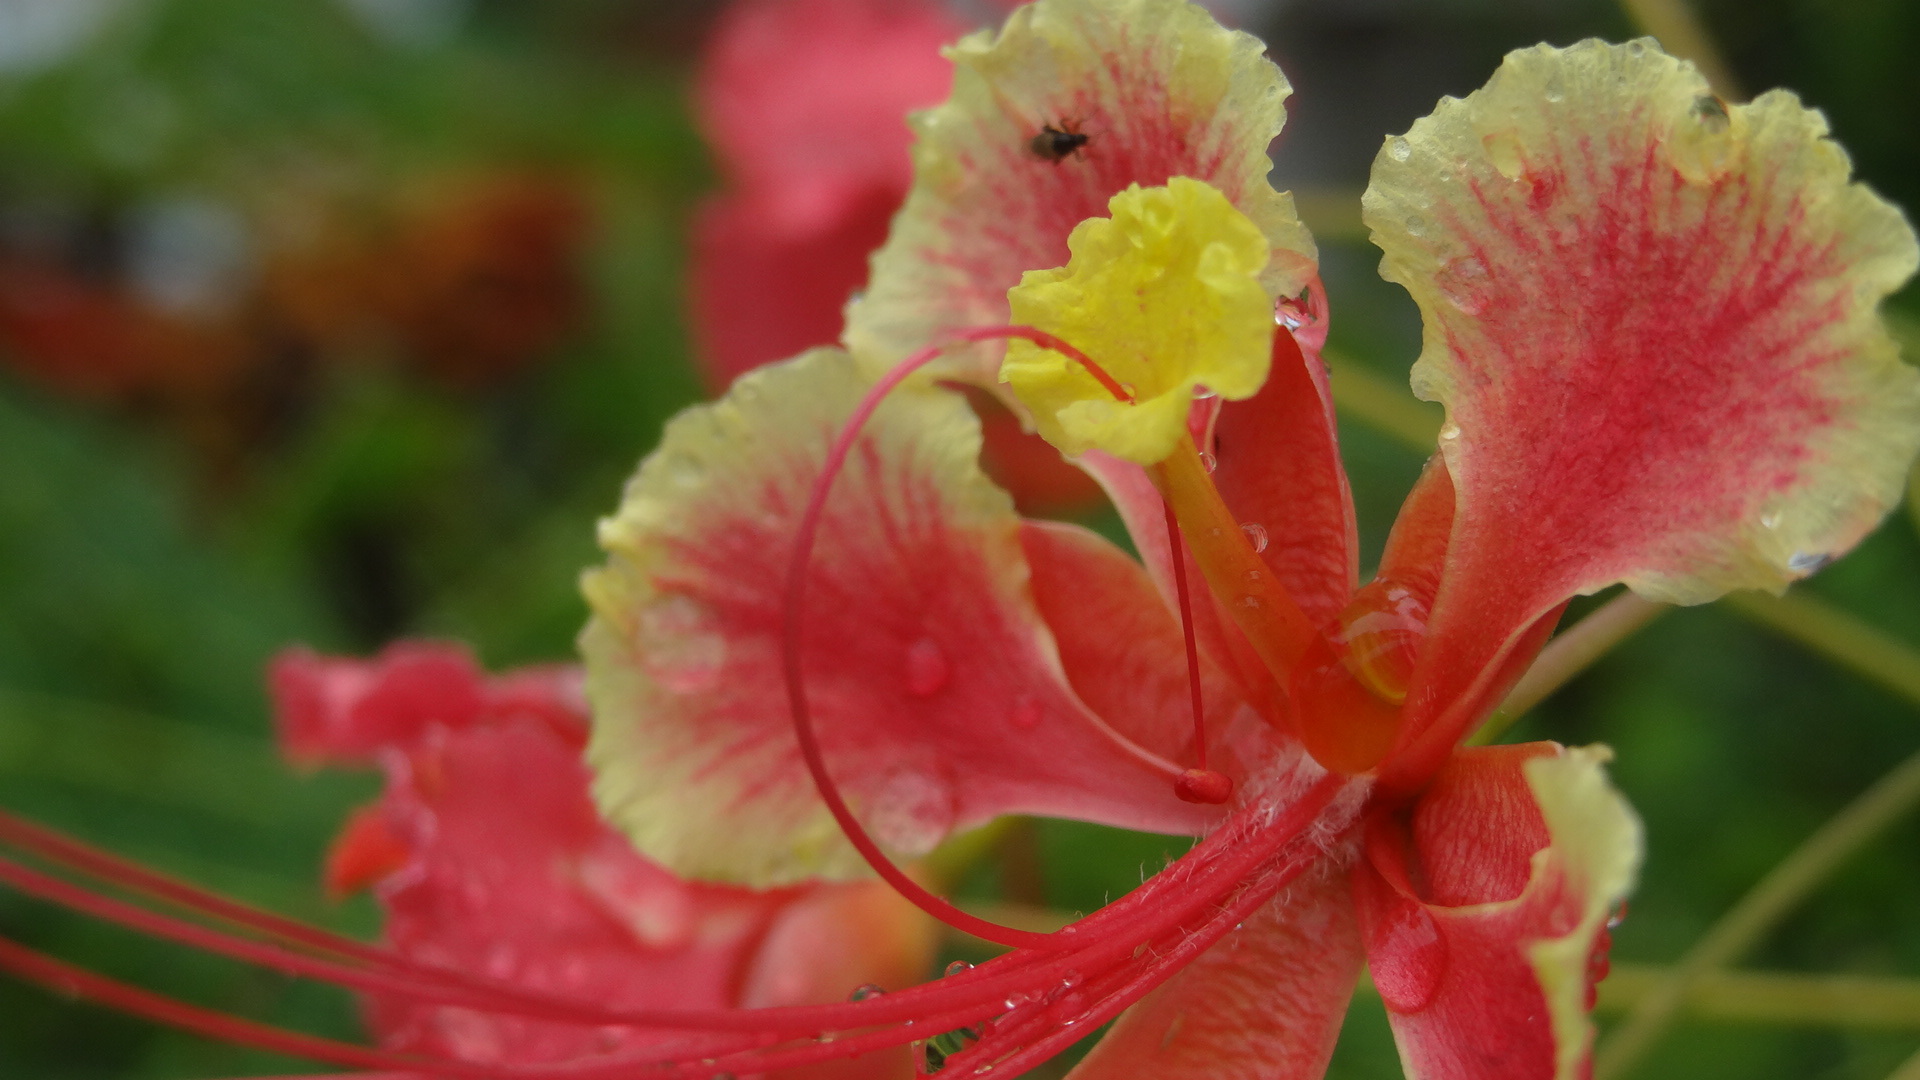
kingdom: Plantae
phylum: Tracheophyta
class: Magnoliopsida
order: Fabales
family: Fabaceae
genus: Caesalpinia
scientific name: Caesalpinia pulcherrima
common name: Pride-of-barbados
